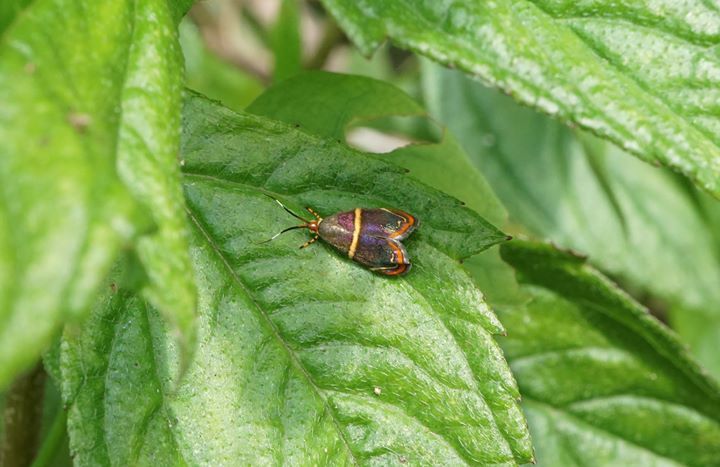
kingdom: Animalia
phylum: Arthropoda
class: Insecta
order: Lepidoptera
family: Choreutidae
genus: Hemerophila
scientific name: Hemerophila
